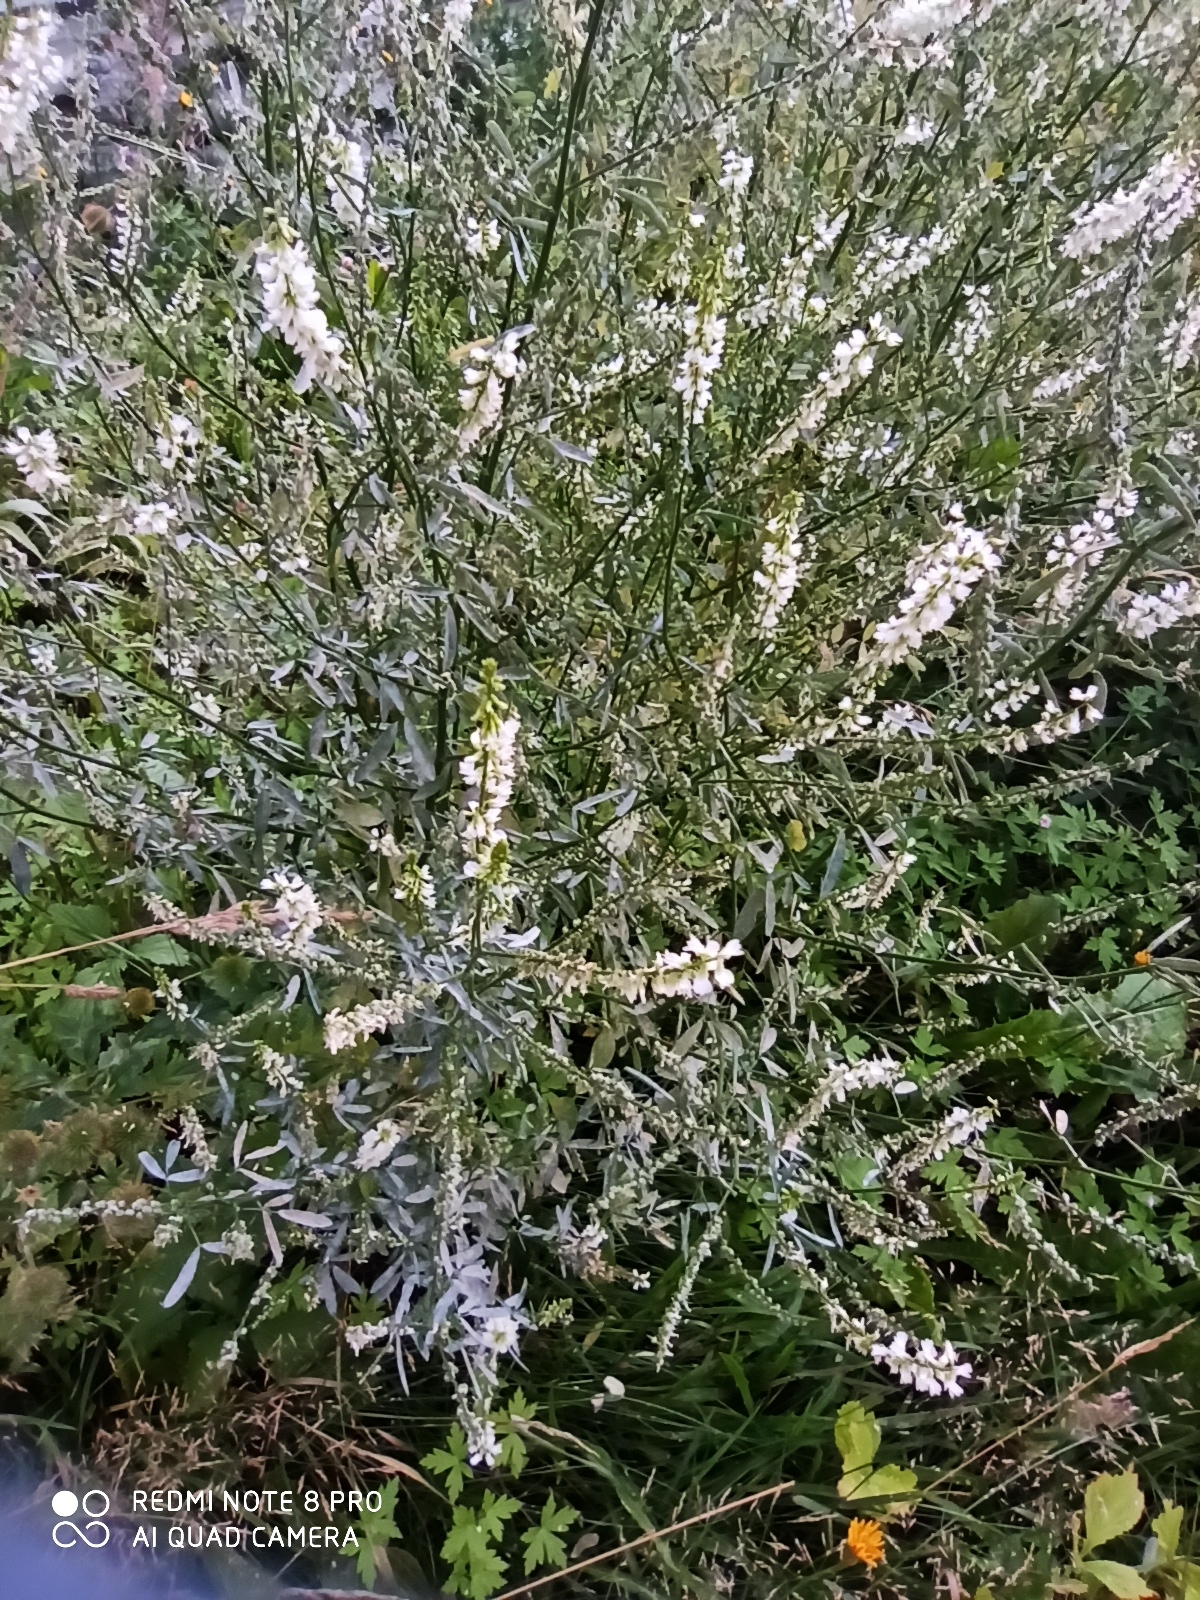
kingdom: Plantae
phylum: Tracheophyta
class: Magnoliopsida
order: Fabales
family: Fabaceae
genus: Melilotus
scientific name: Melilotus albus
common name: White melilot
